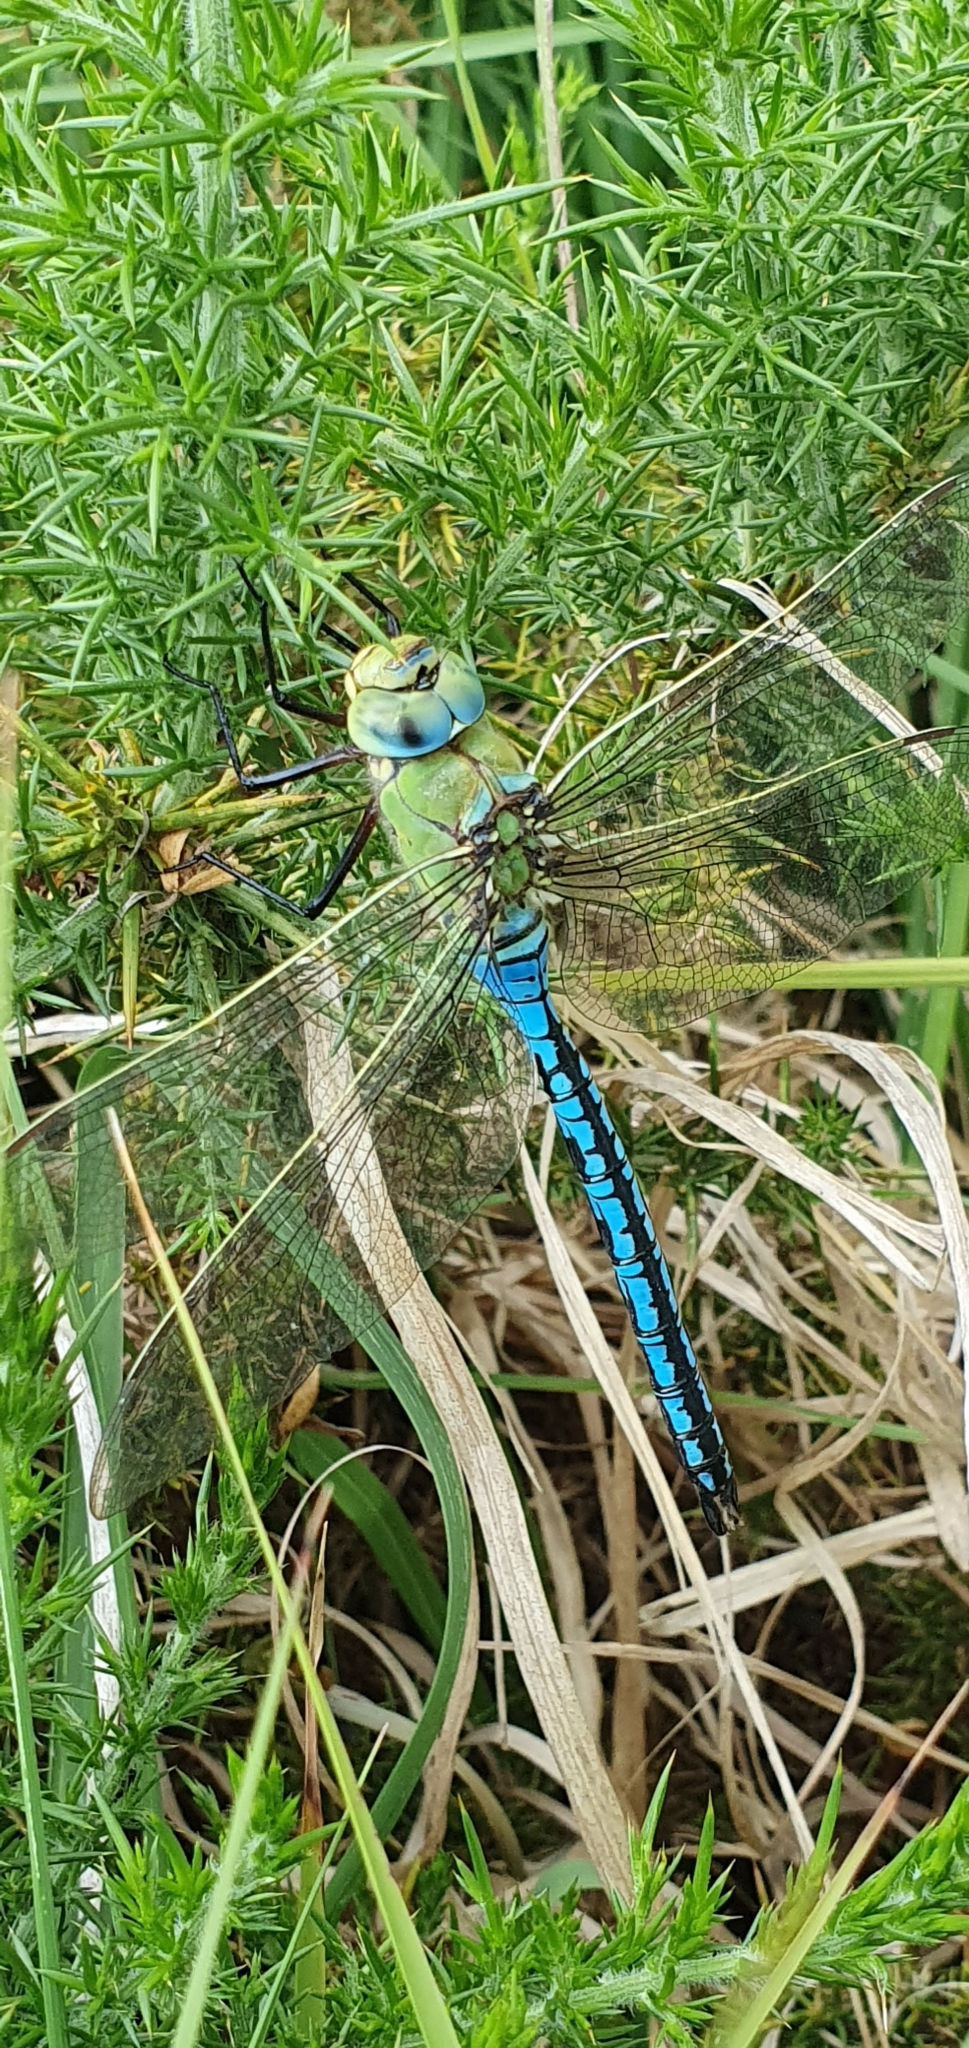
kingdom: Animalia
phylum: Arthropoda
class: Insecta
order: Odonata
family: Aeshnidae
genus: Anax
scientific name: Anax imperator
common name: Emperor dragonfly
